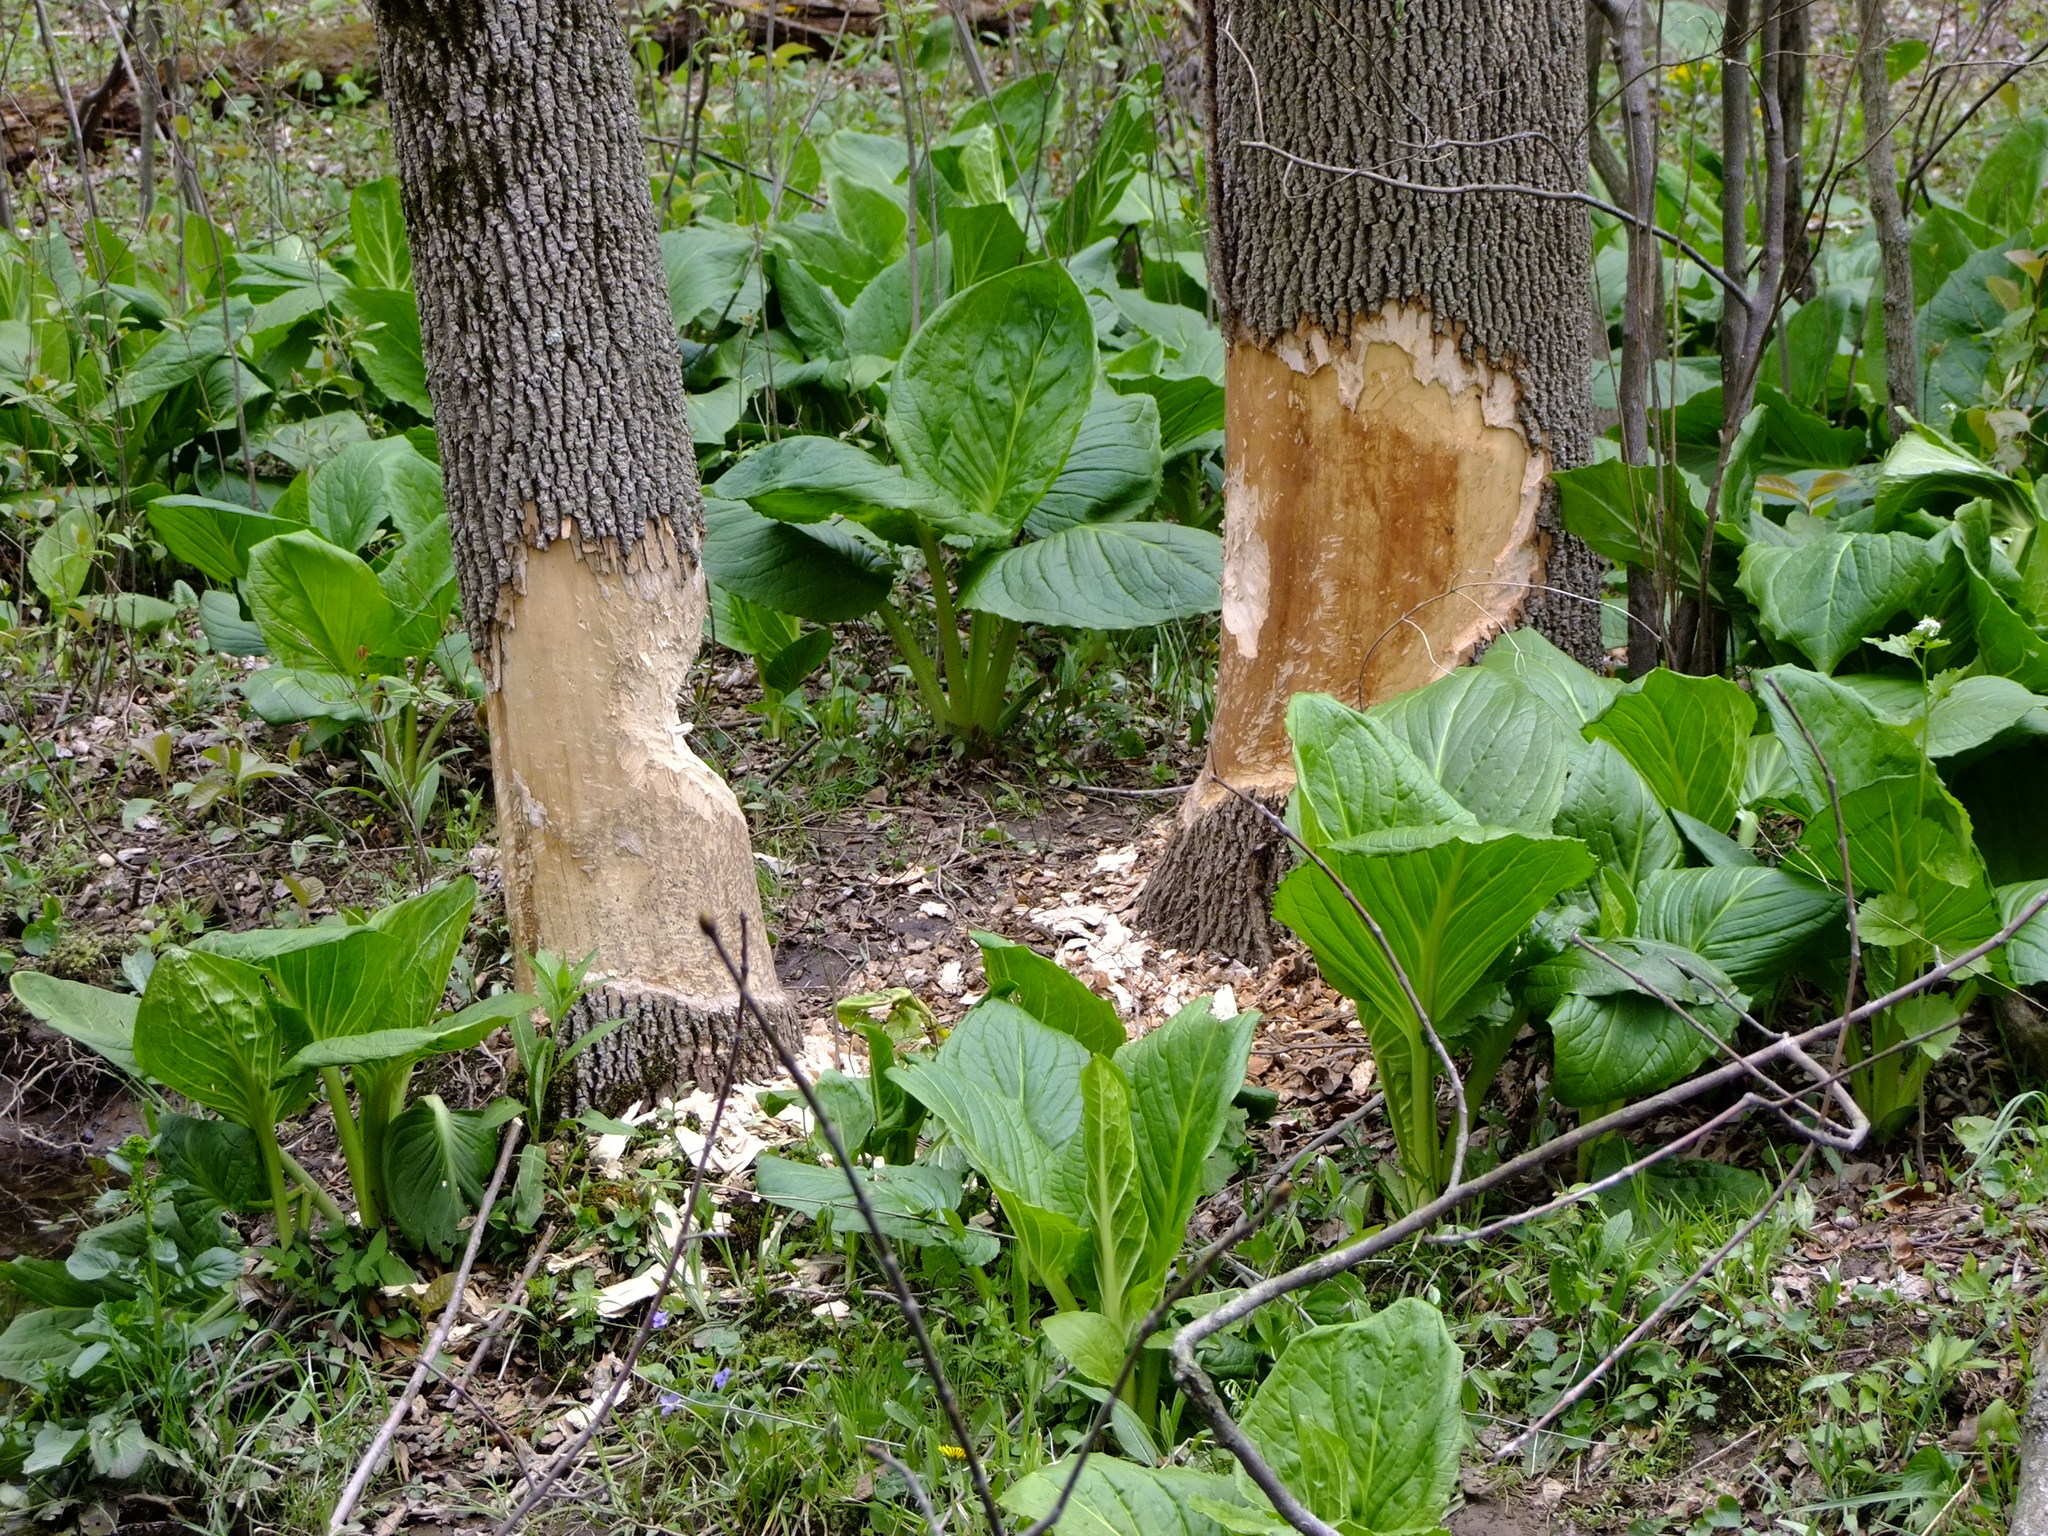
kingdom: Animalia
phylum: Chordata
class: Mammalia
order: Rodentia
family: Castoridae
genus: Castor
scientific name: Castor canadensis
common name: American beaver
